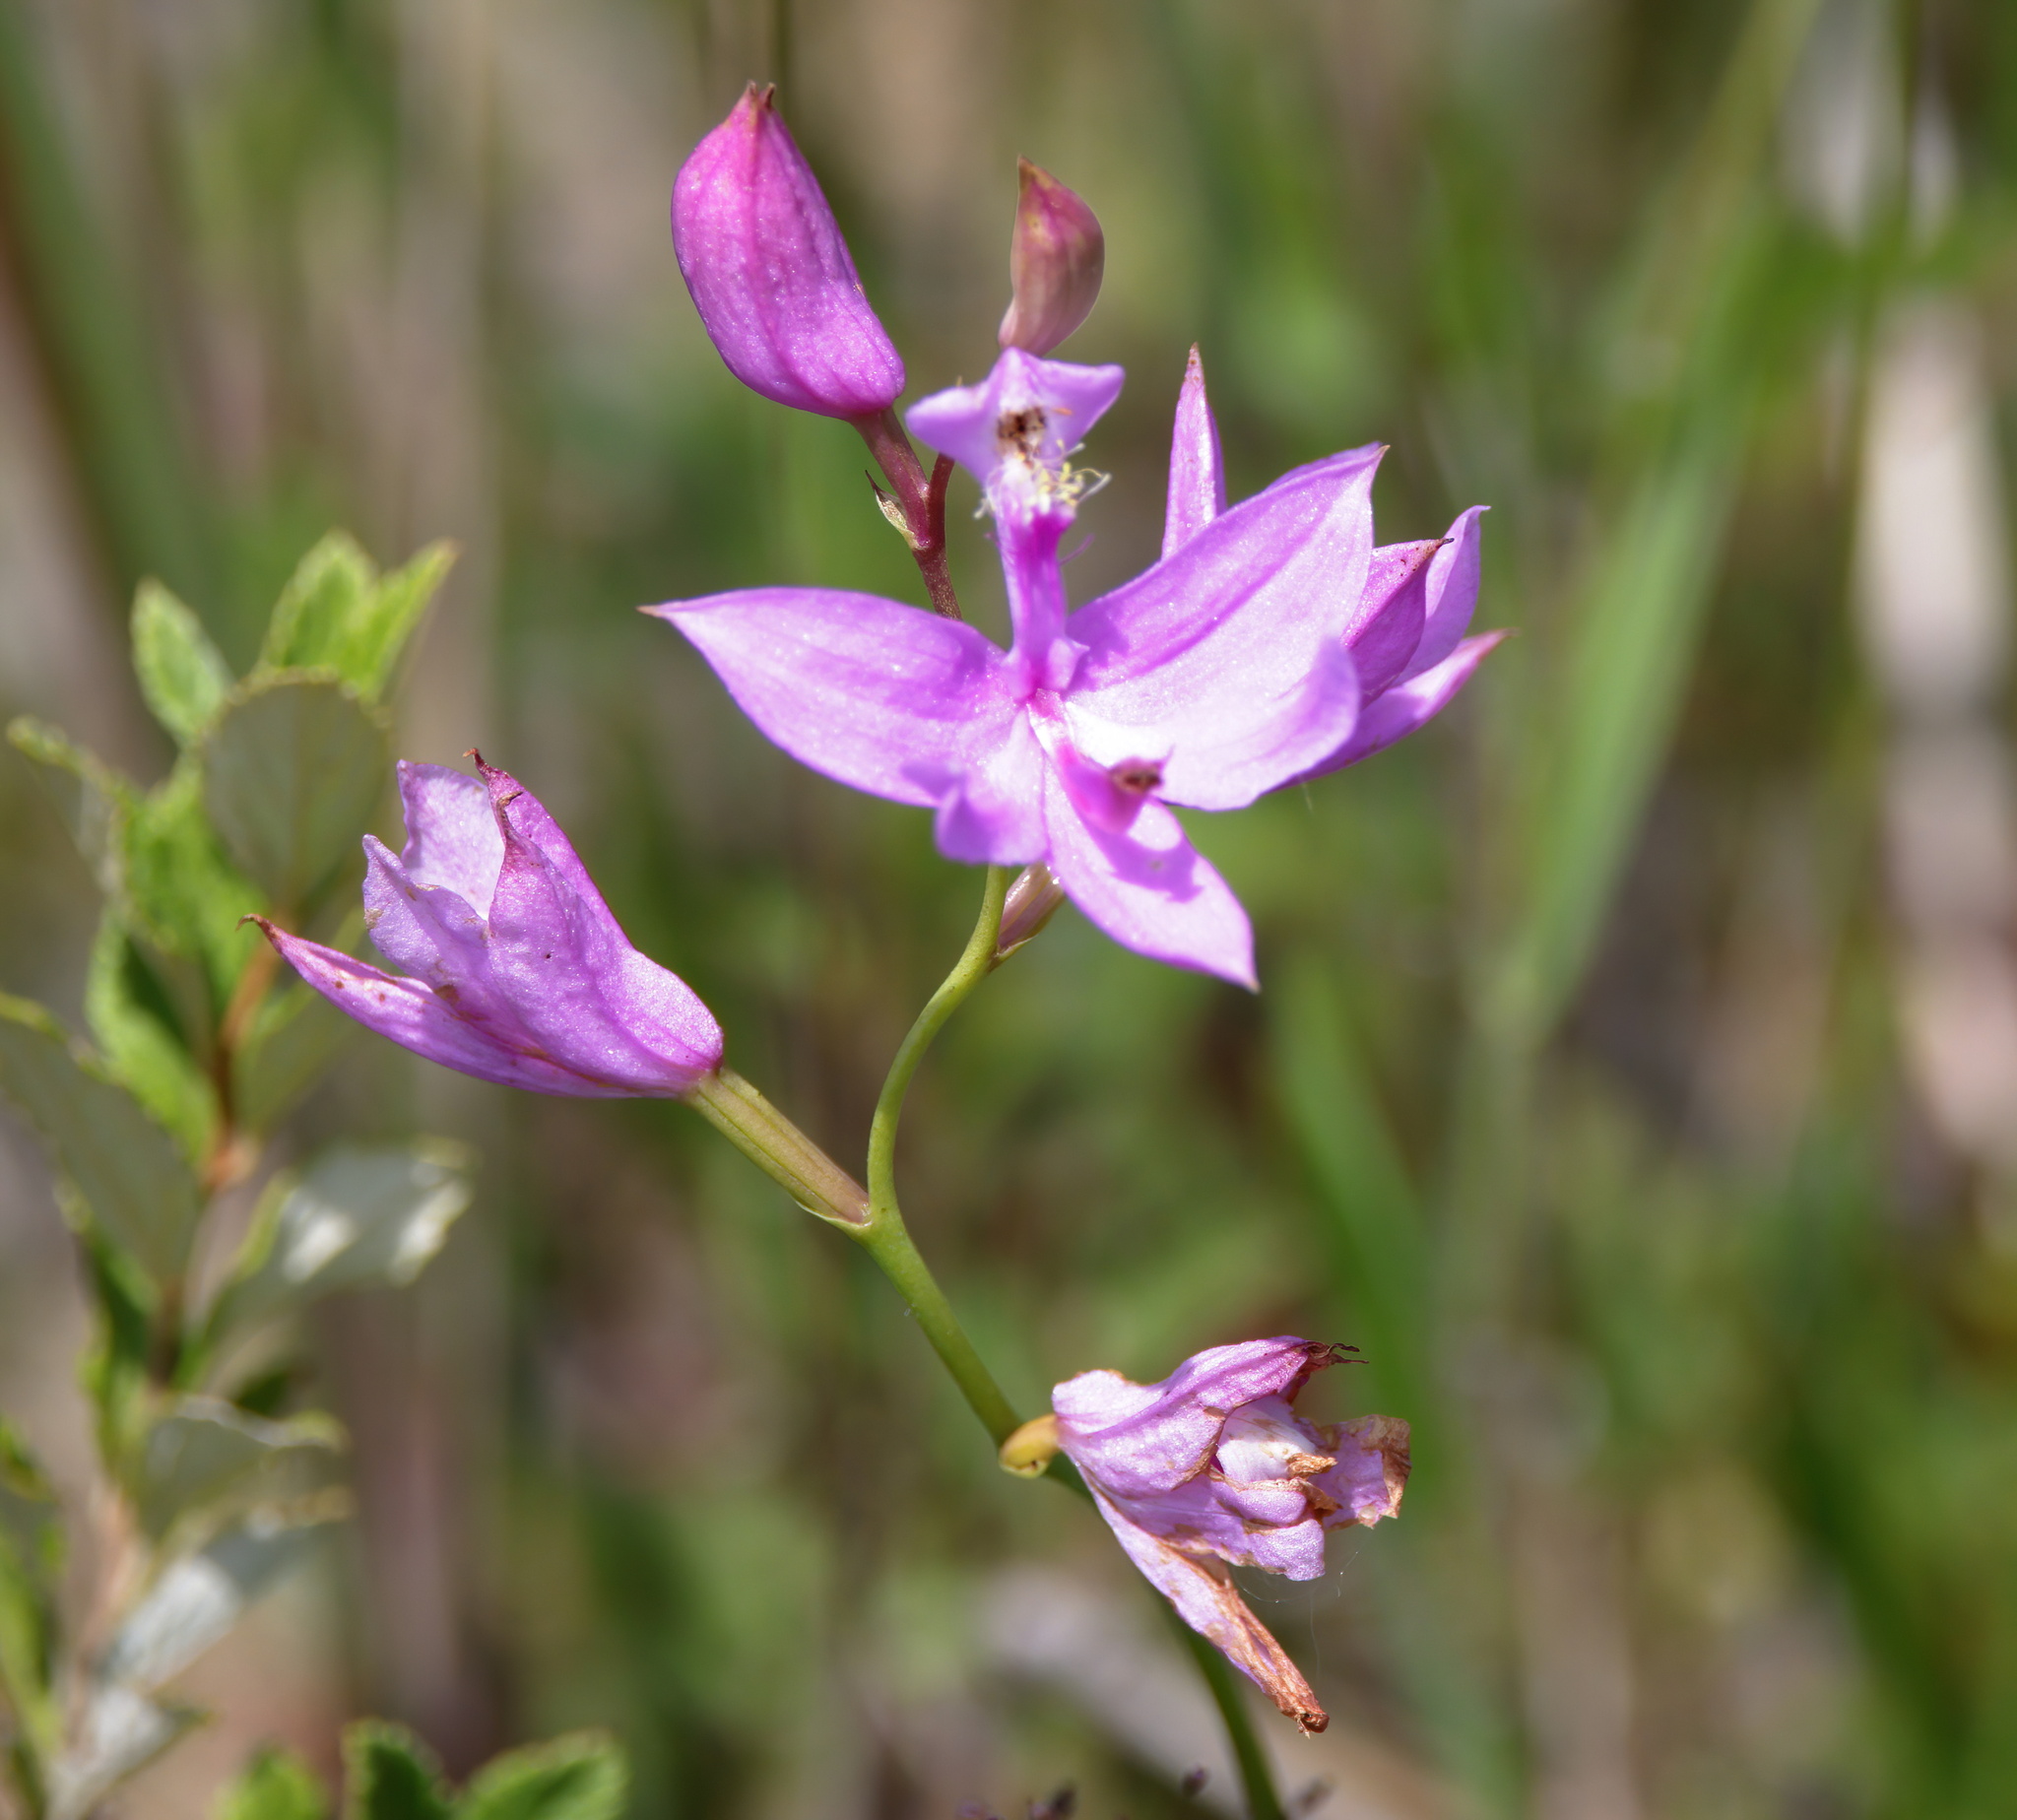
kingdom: Plantae
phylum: Tracheophyta
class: Liliopsida
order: Asparagales
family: Orchidaceae
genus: Calopogon
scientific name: Calopogon tuberosus
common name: Grass-pink
